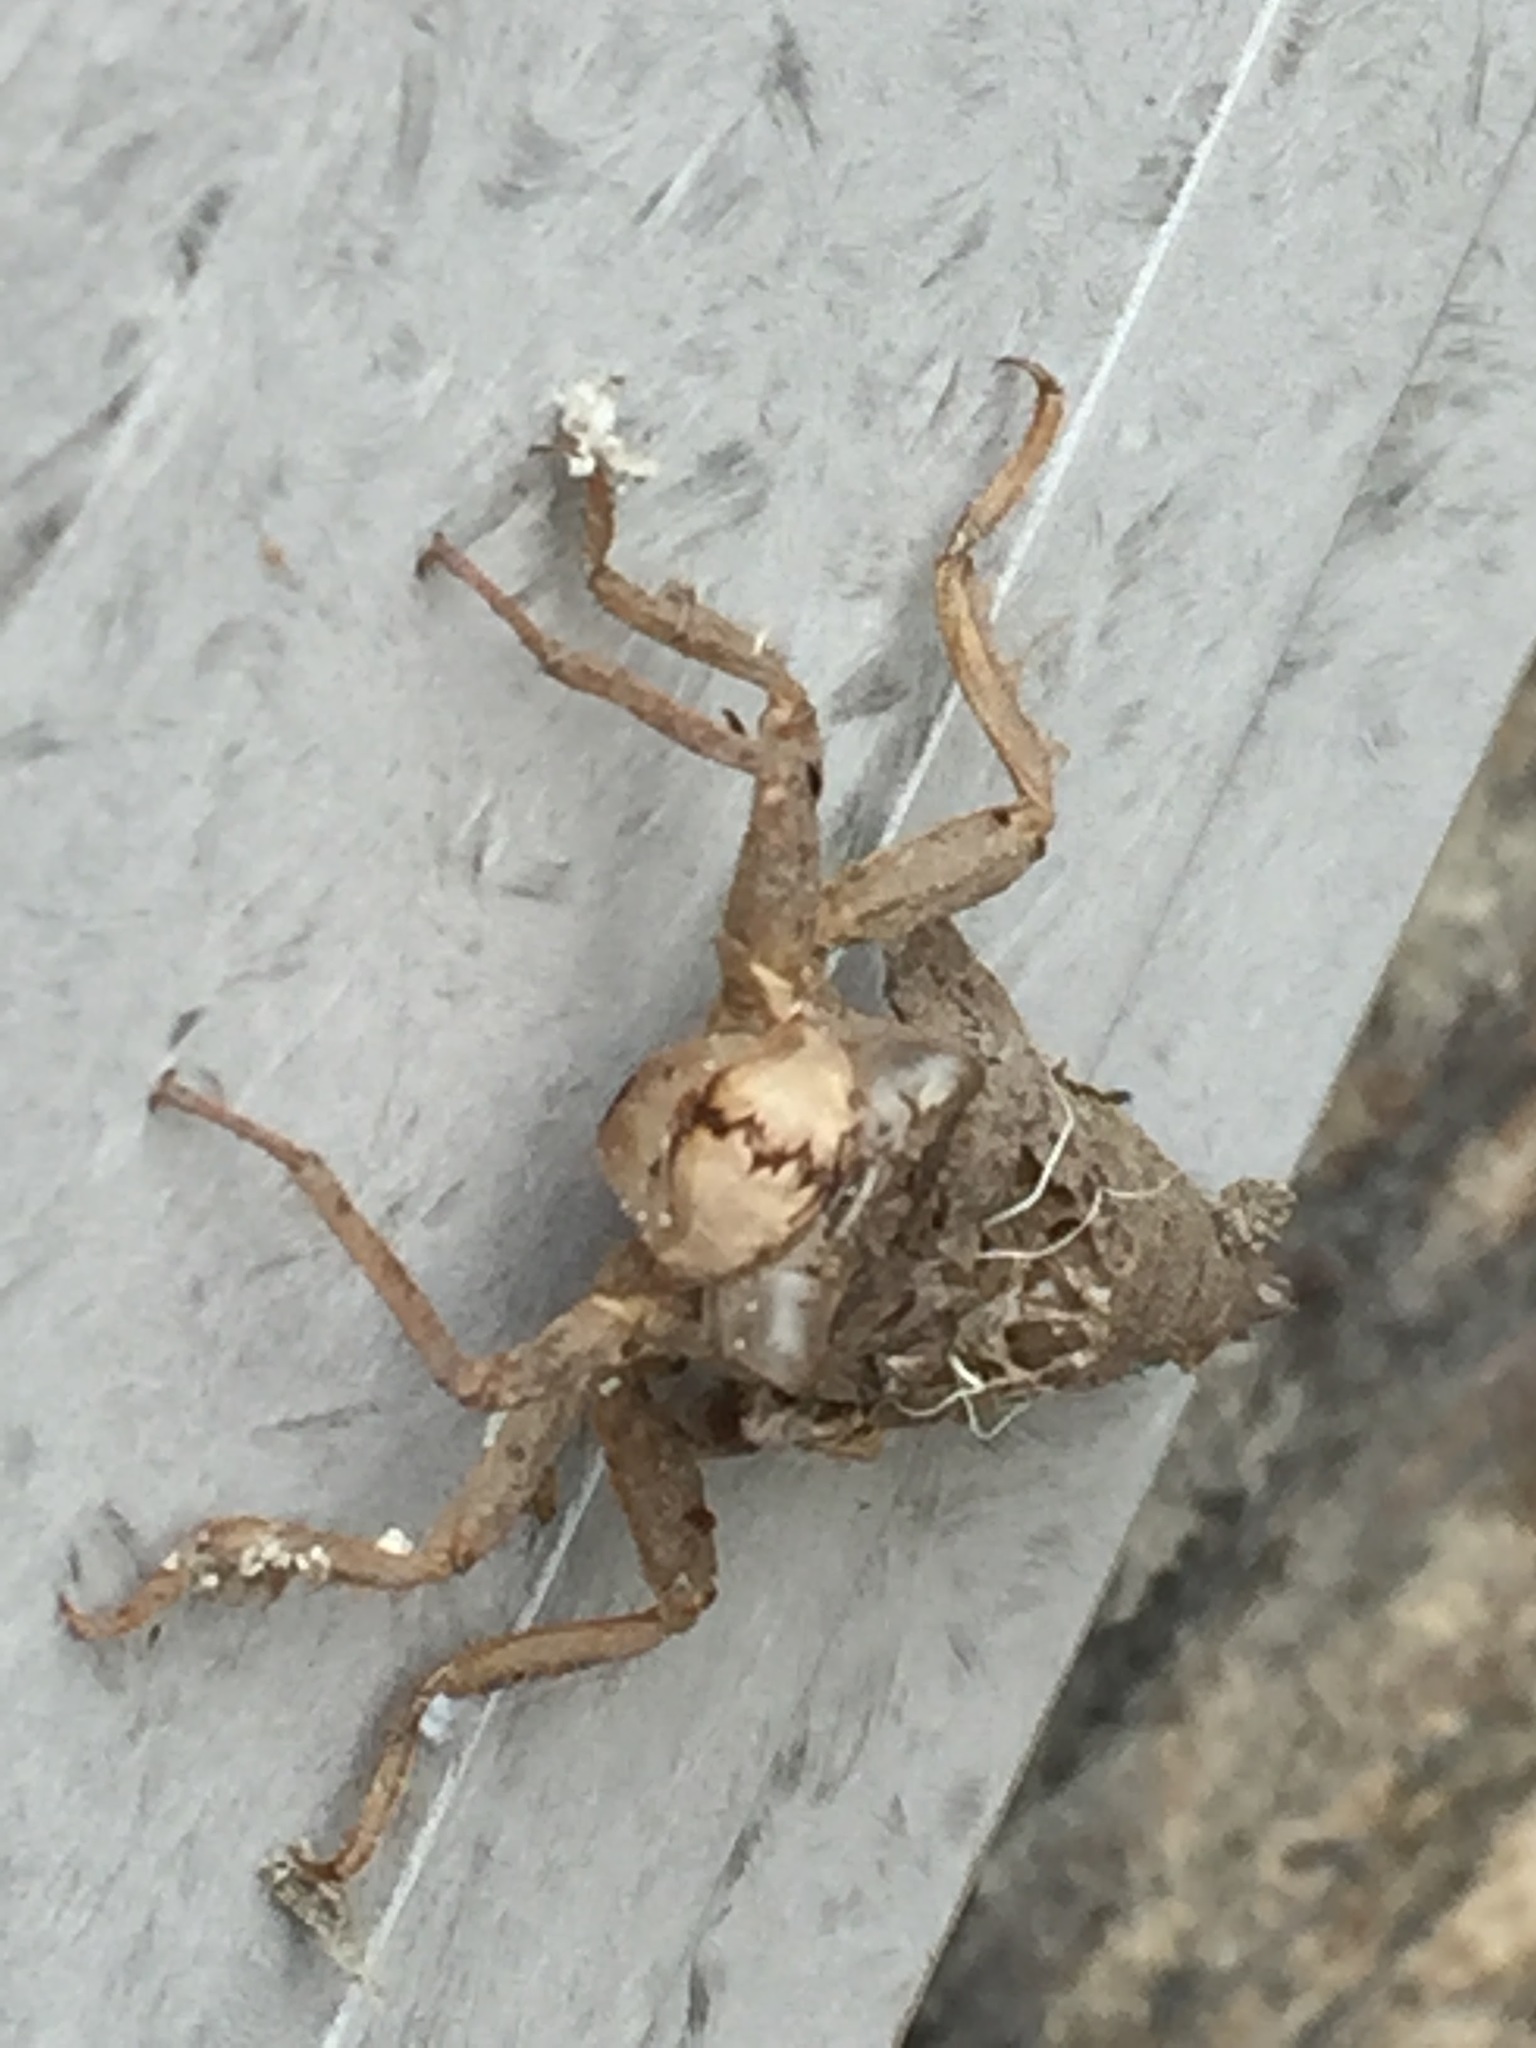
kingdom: Animalia
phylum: Arthropoda
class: Insecta
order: Odonata
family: Cordulegastridae
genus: Cordulegaster
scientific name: Cordulegaster boltonii
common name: Golden-ringed dragonfly
